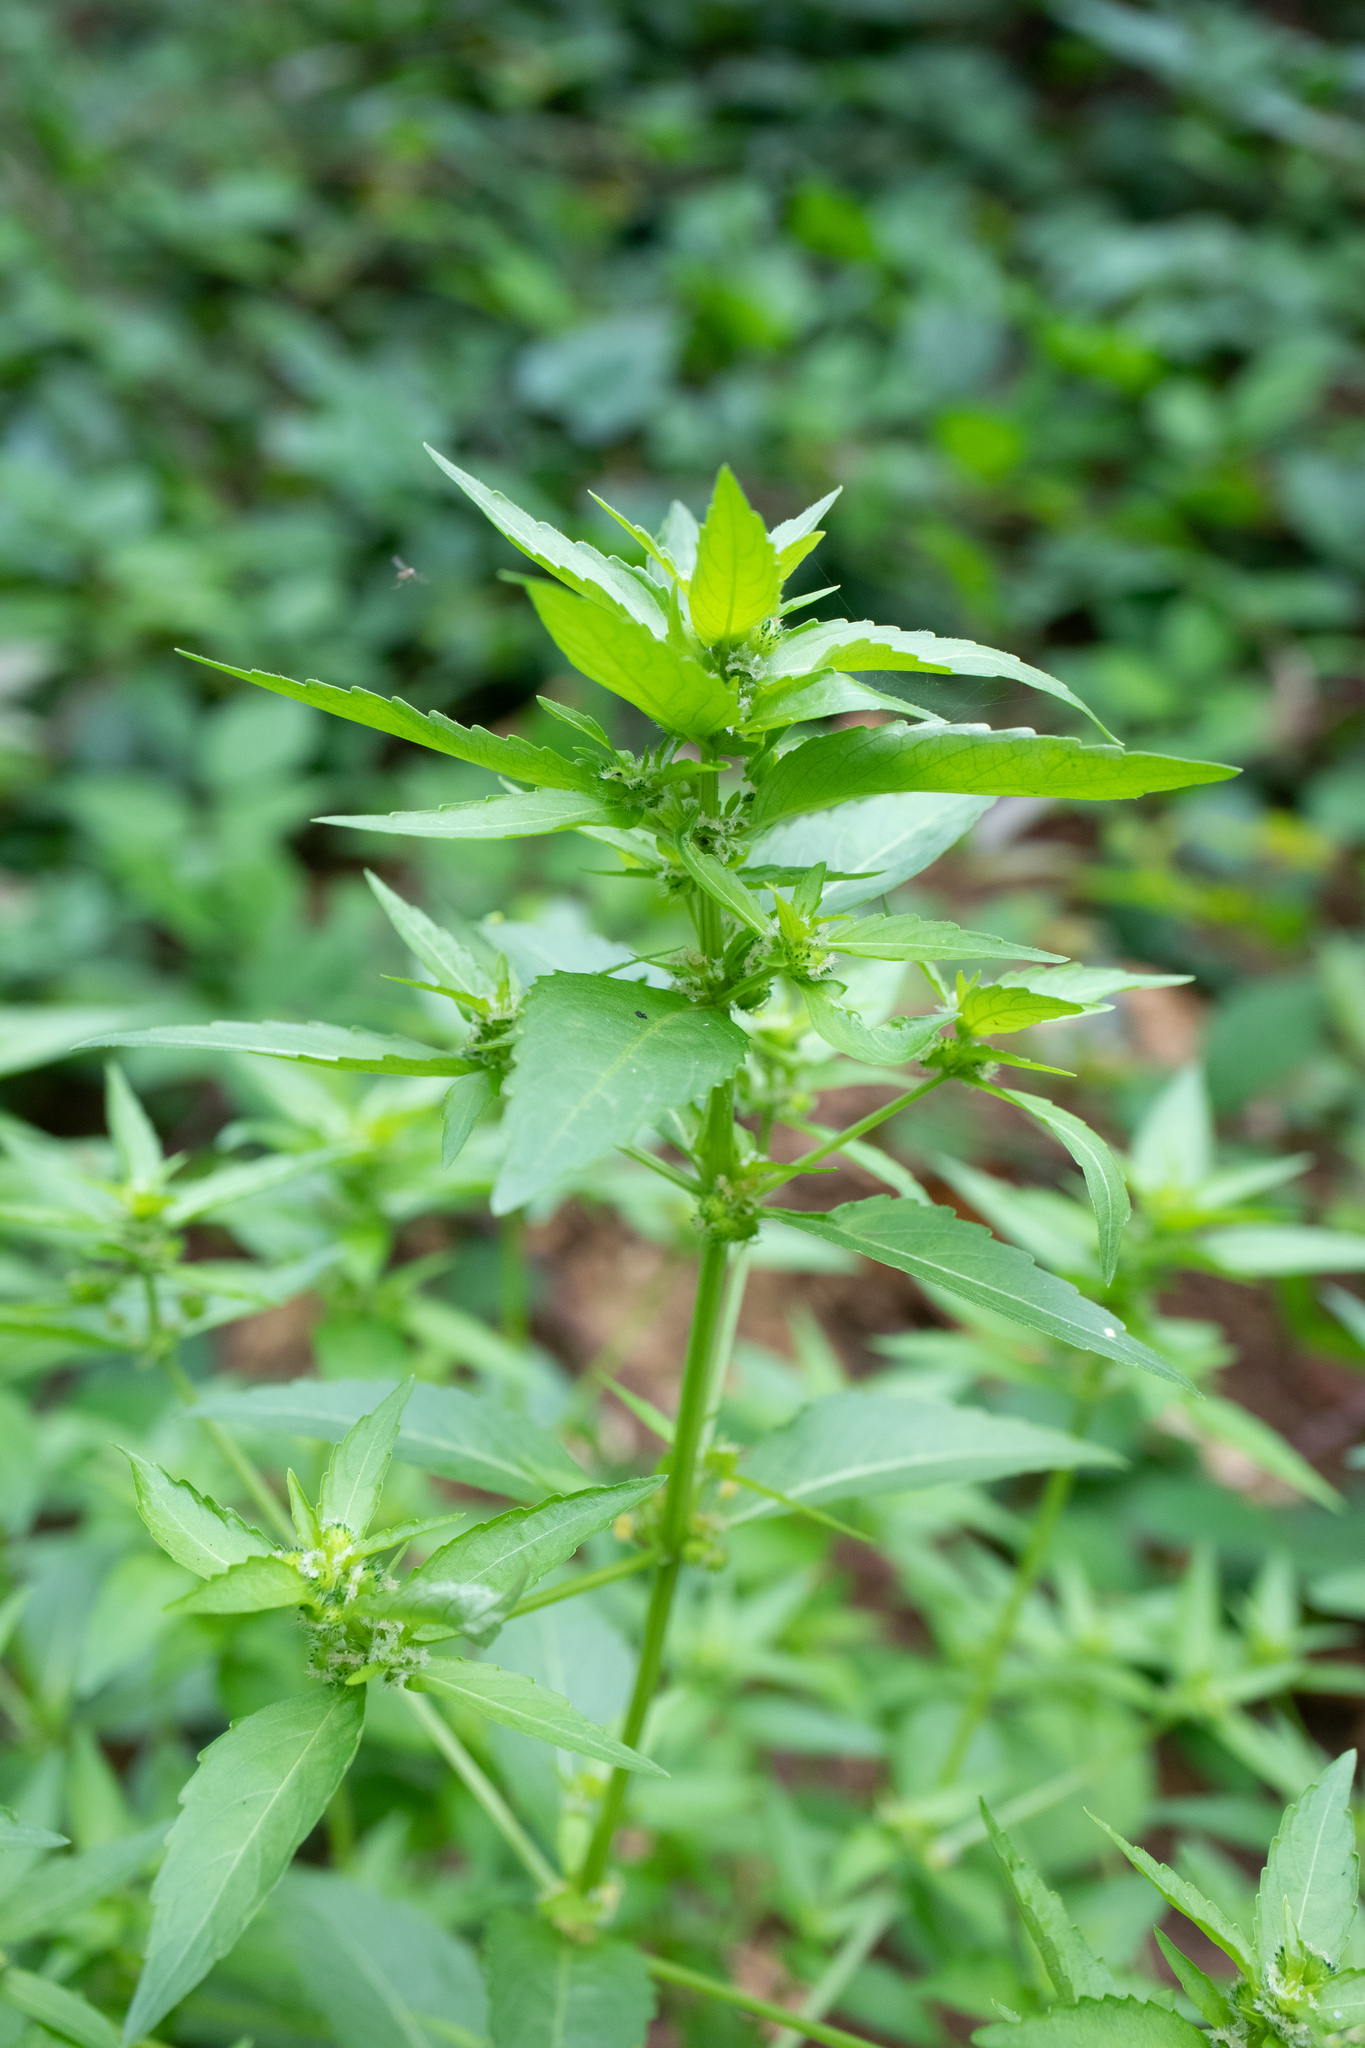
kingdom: Plantae
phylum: Tracheophyta
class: Magnoliopsida
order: Malpighiales
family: Euphorbiaceae
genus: Mercurialis
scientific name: Mercurialis annua
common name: Annual mercury
